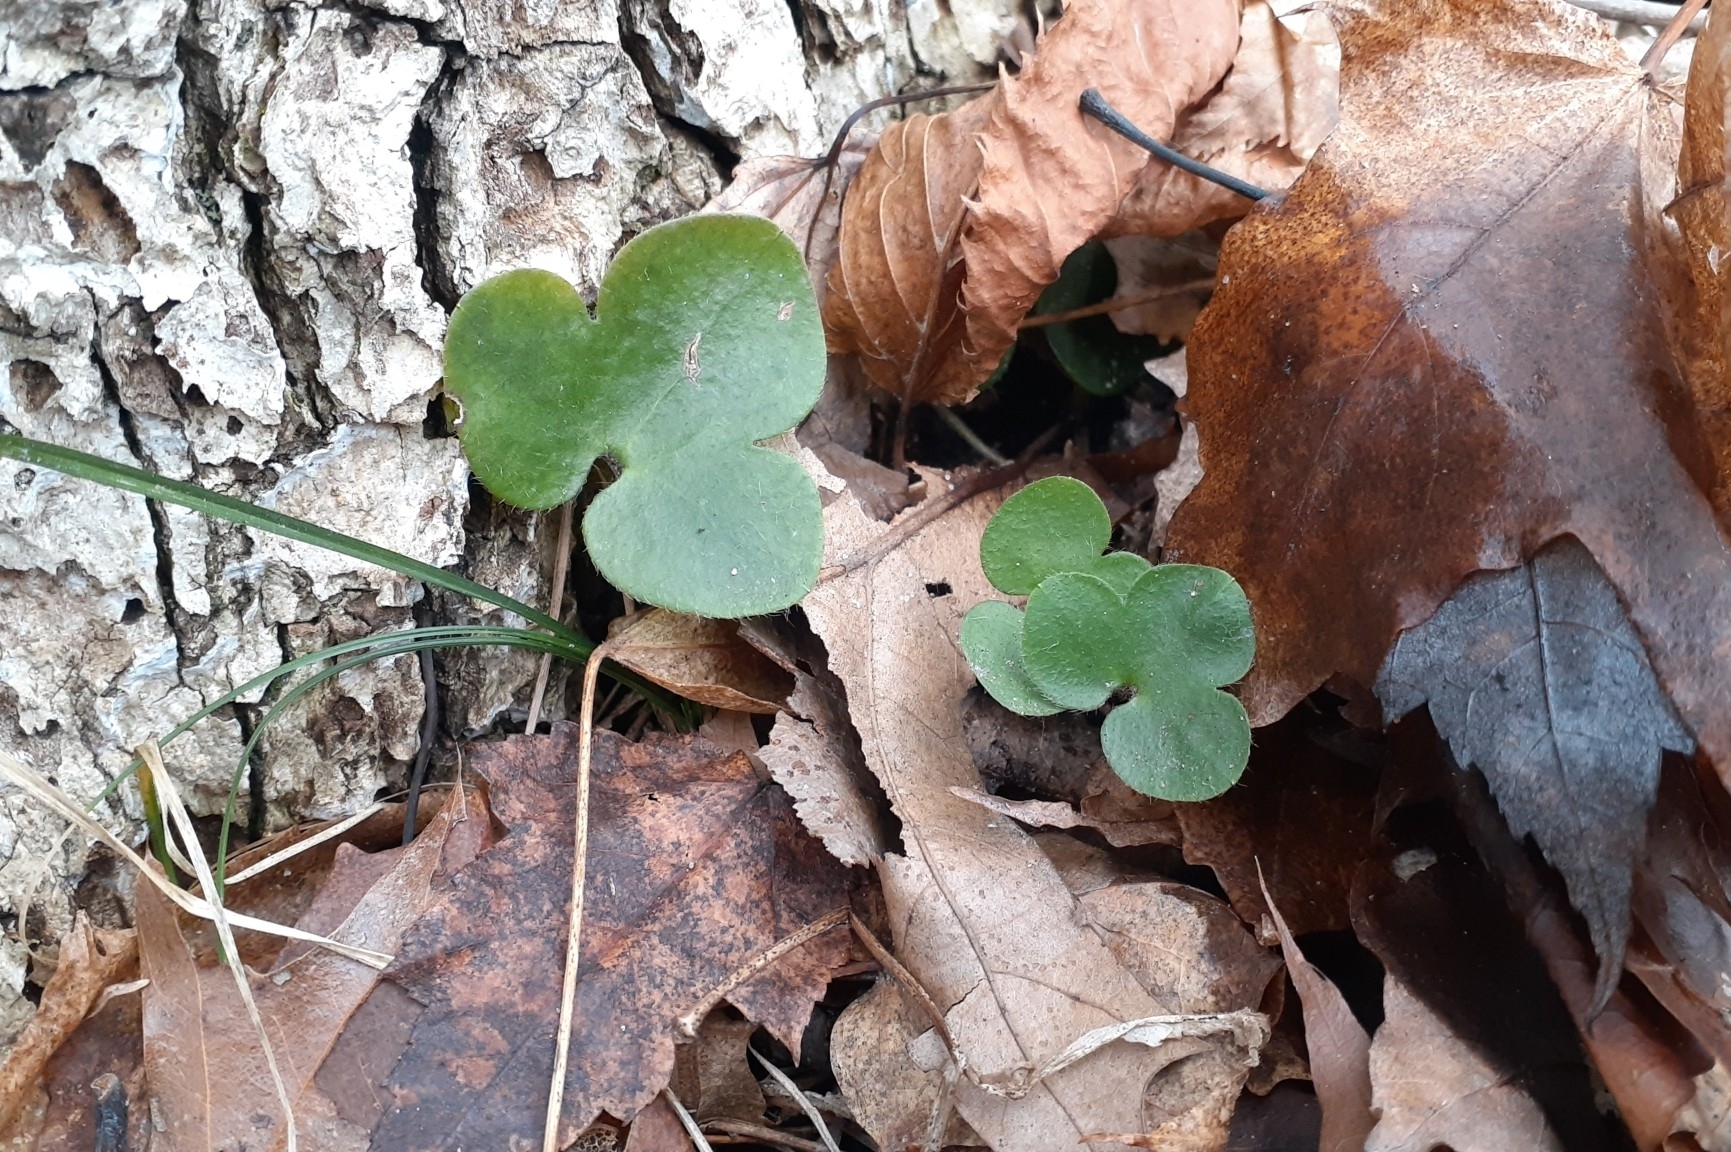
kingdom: Plantae
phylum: Tracheophyta
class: Magnoliopsida
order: Ranunculales
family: Ranunculaceae
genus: Hepatica
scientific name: Hepatica americana
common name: American hepatica
